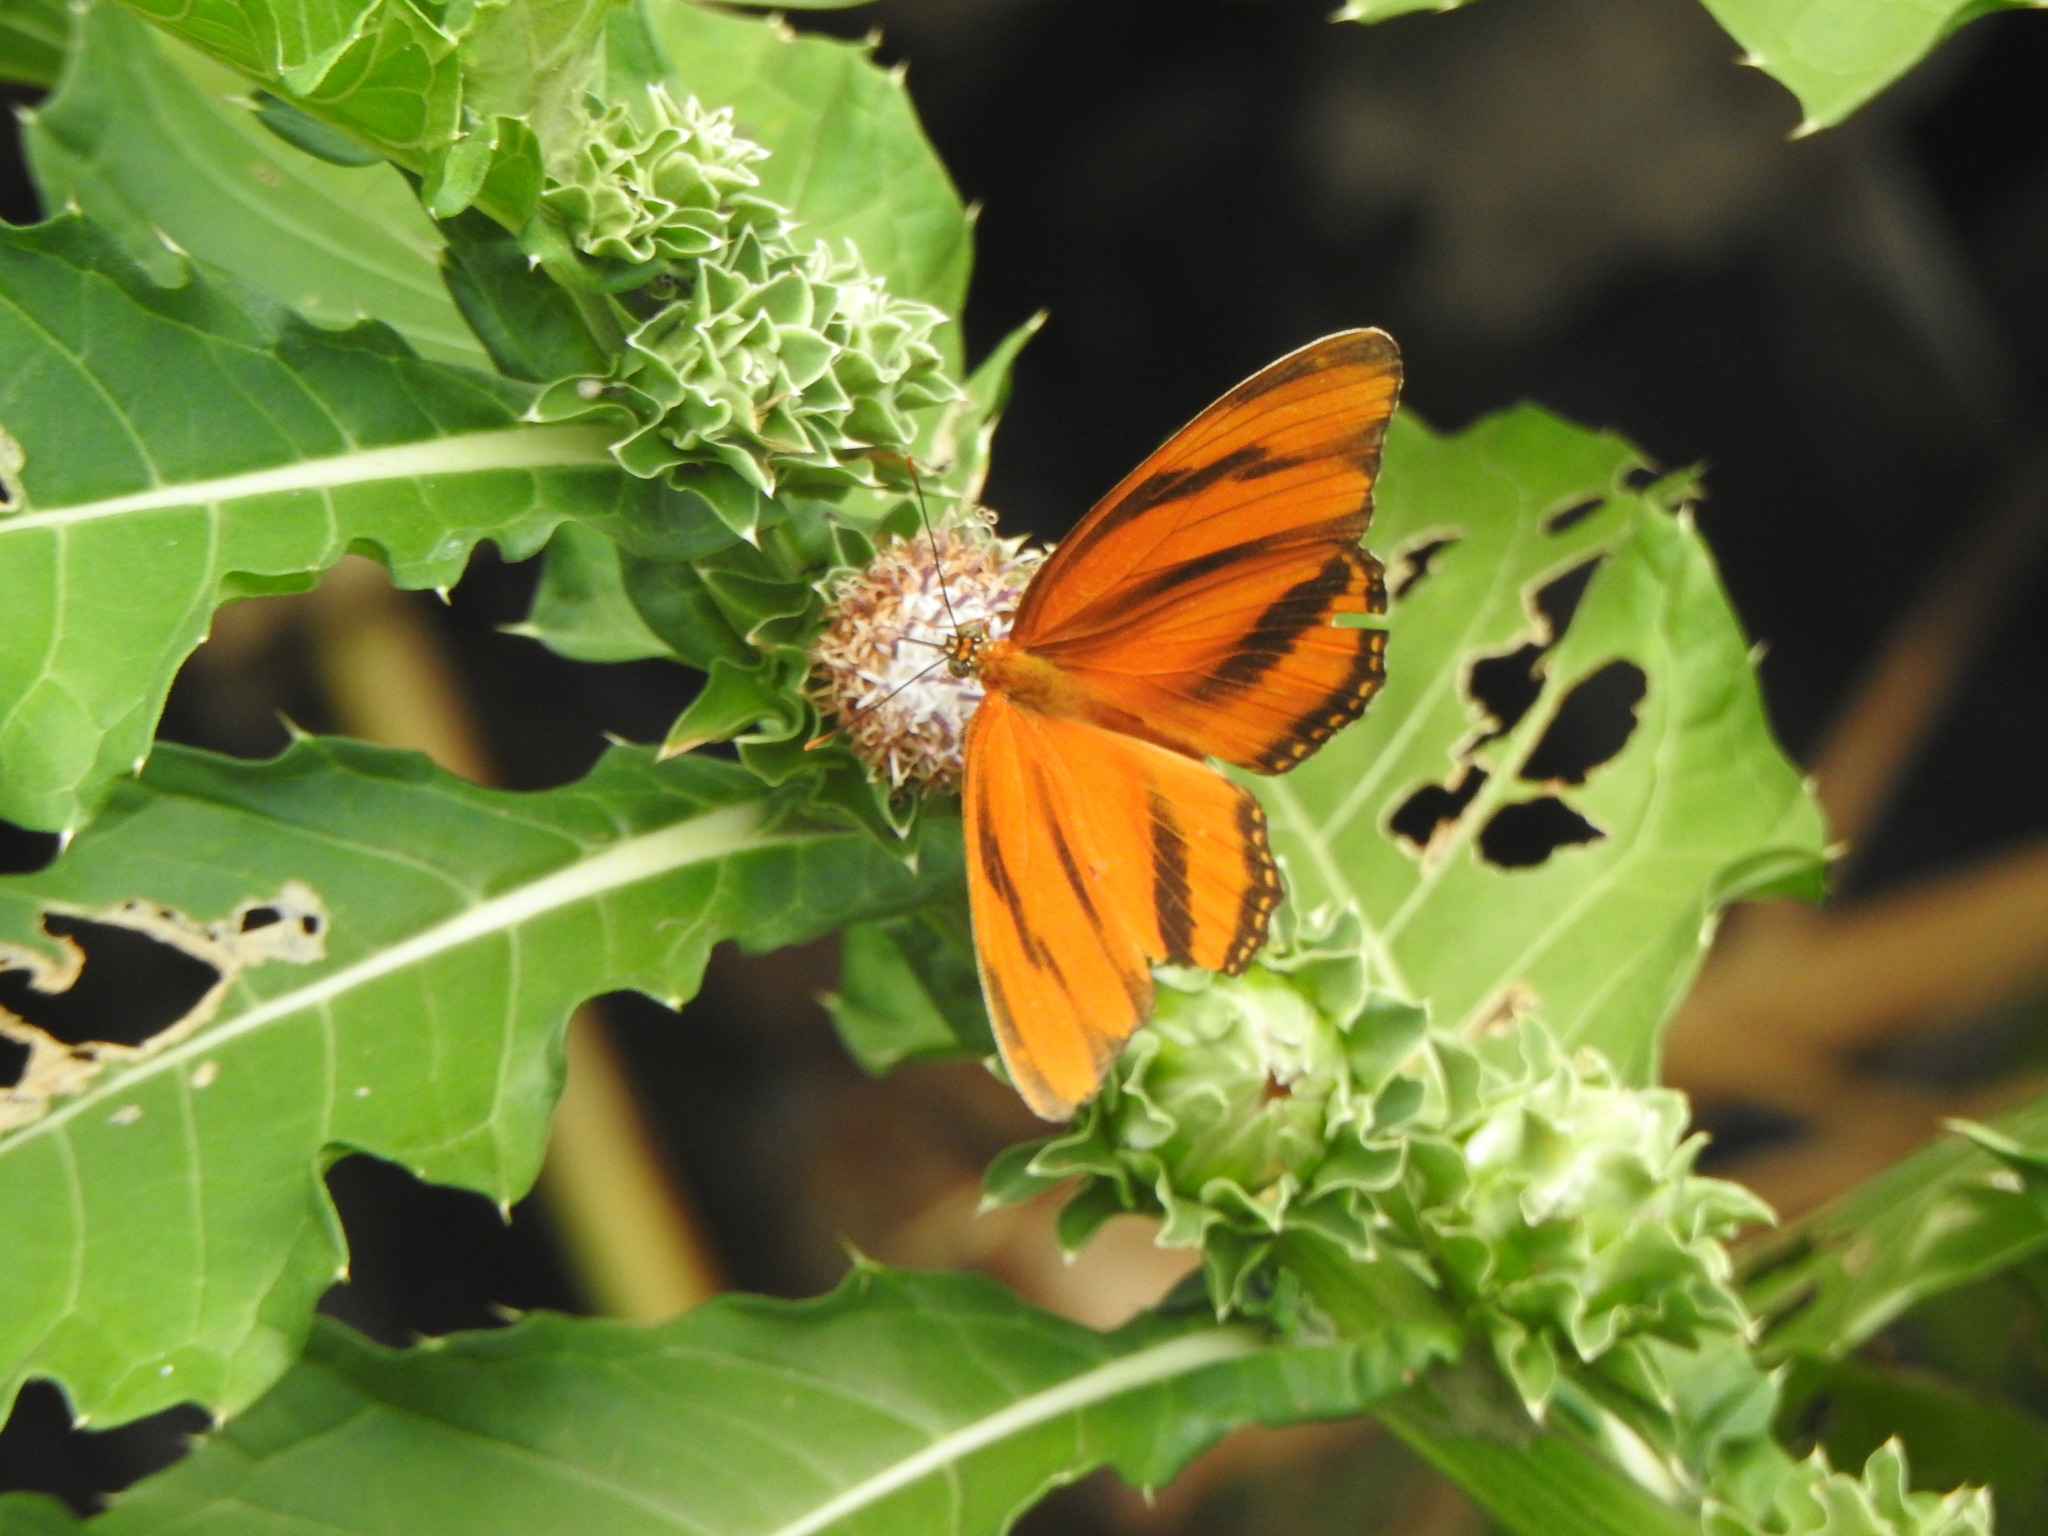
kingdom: Animalia
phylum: Arthropoda
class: Insecta
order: Lepidoptera
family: Nymphalidae
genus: Dryadula
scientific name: Dryadula phaetusa
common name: Banded orange heliconian
